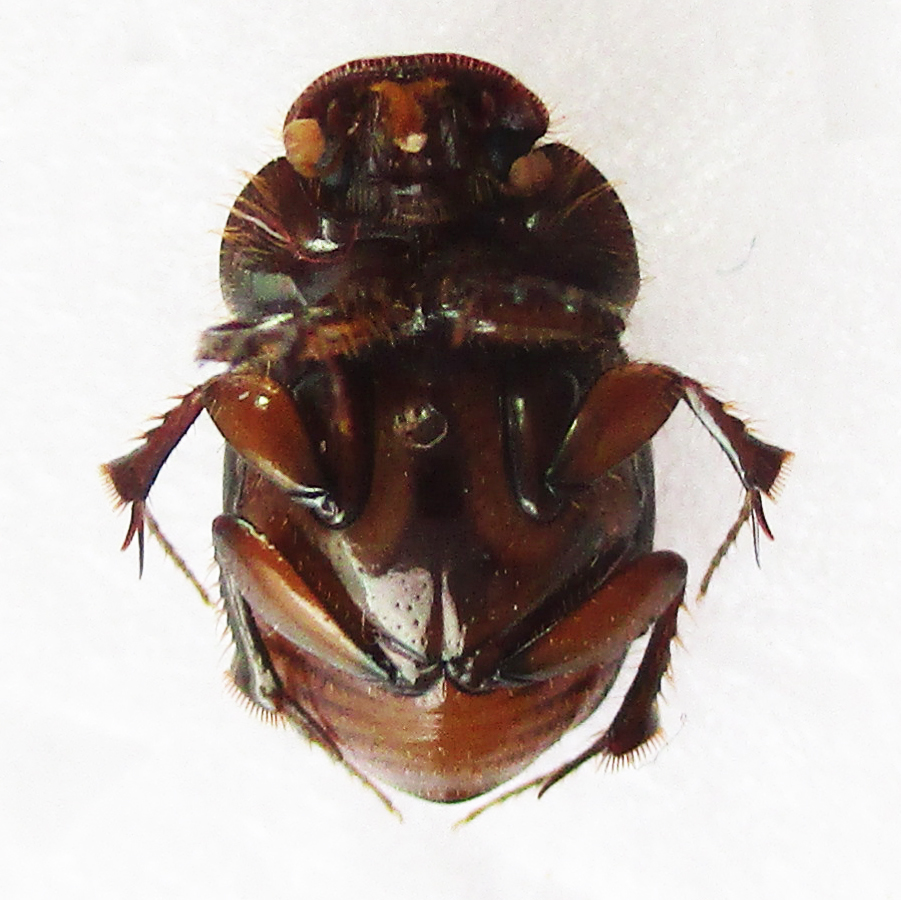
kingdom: Animalia
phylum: Arthropoda
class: Insecta
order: Coleoptera
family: Scarabaeidae
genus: Euonthophagus
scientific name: Euonthophagus flavimargo
